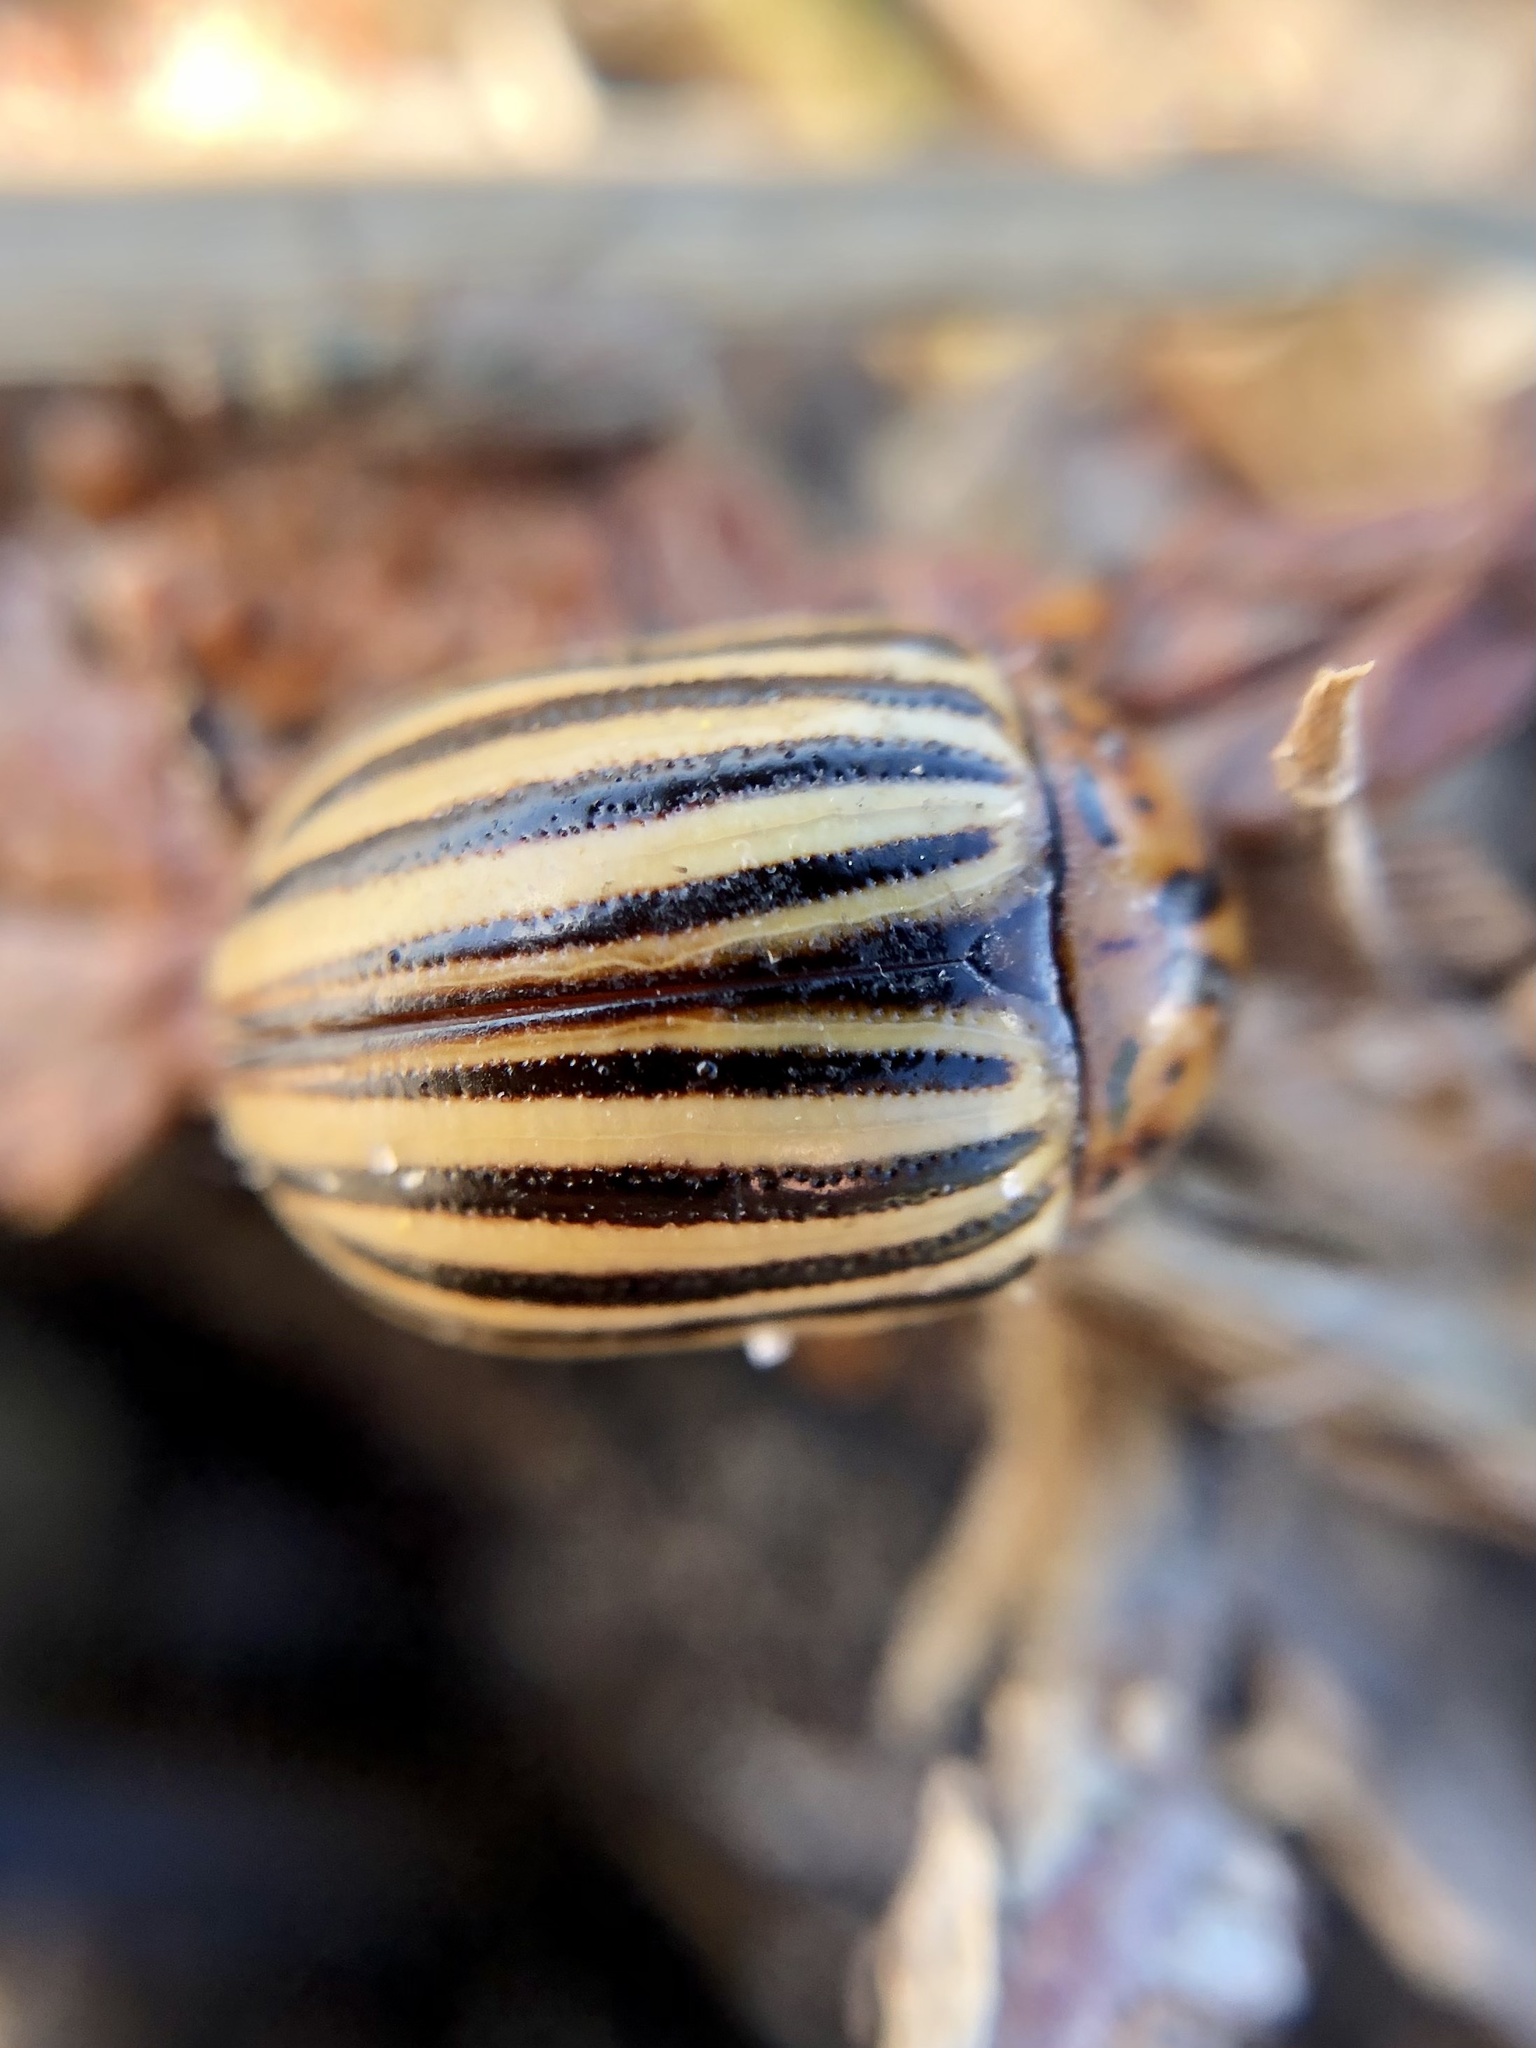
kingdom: Animalia
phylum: Arthropoda
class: Insecta
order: Coleoptera
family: Chrysomelidae
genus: Leptinotarsa
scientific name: Leptinotarsa decemlineata
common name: Colorado potato beetle
